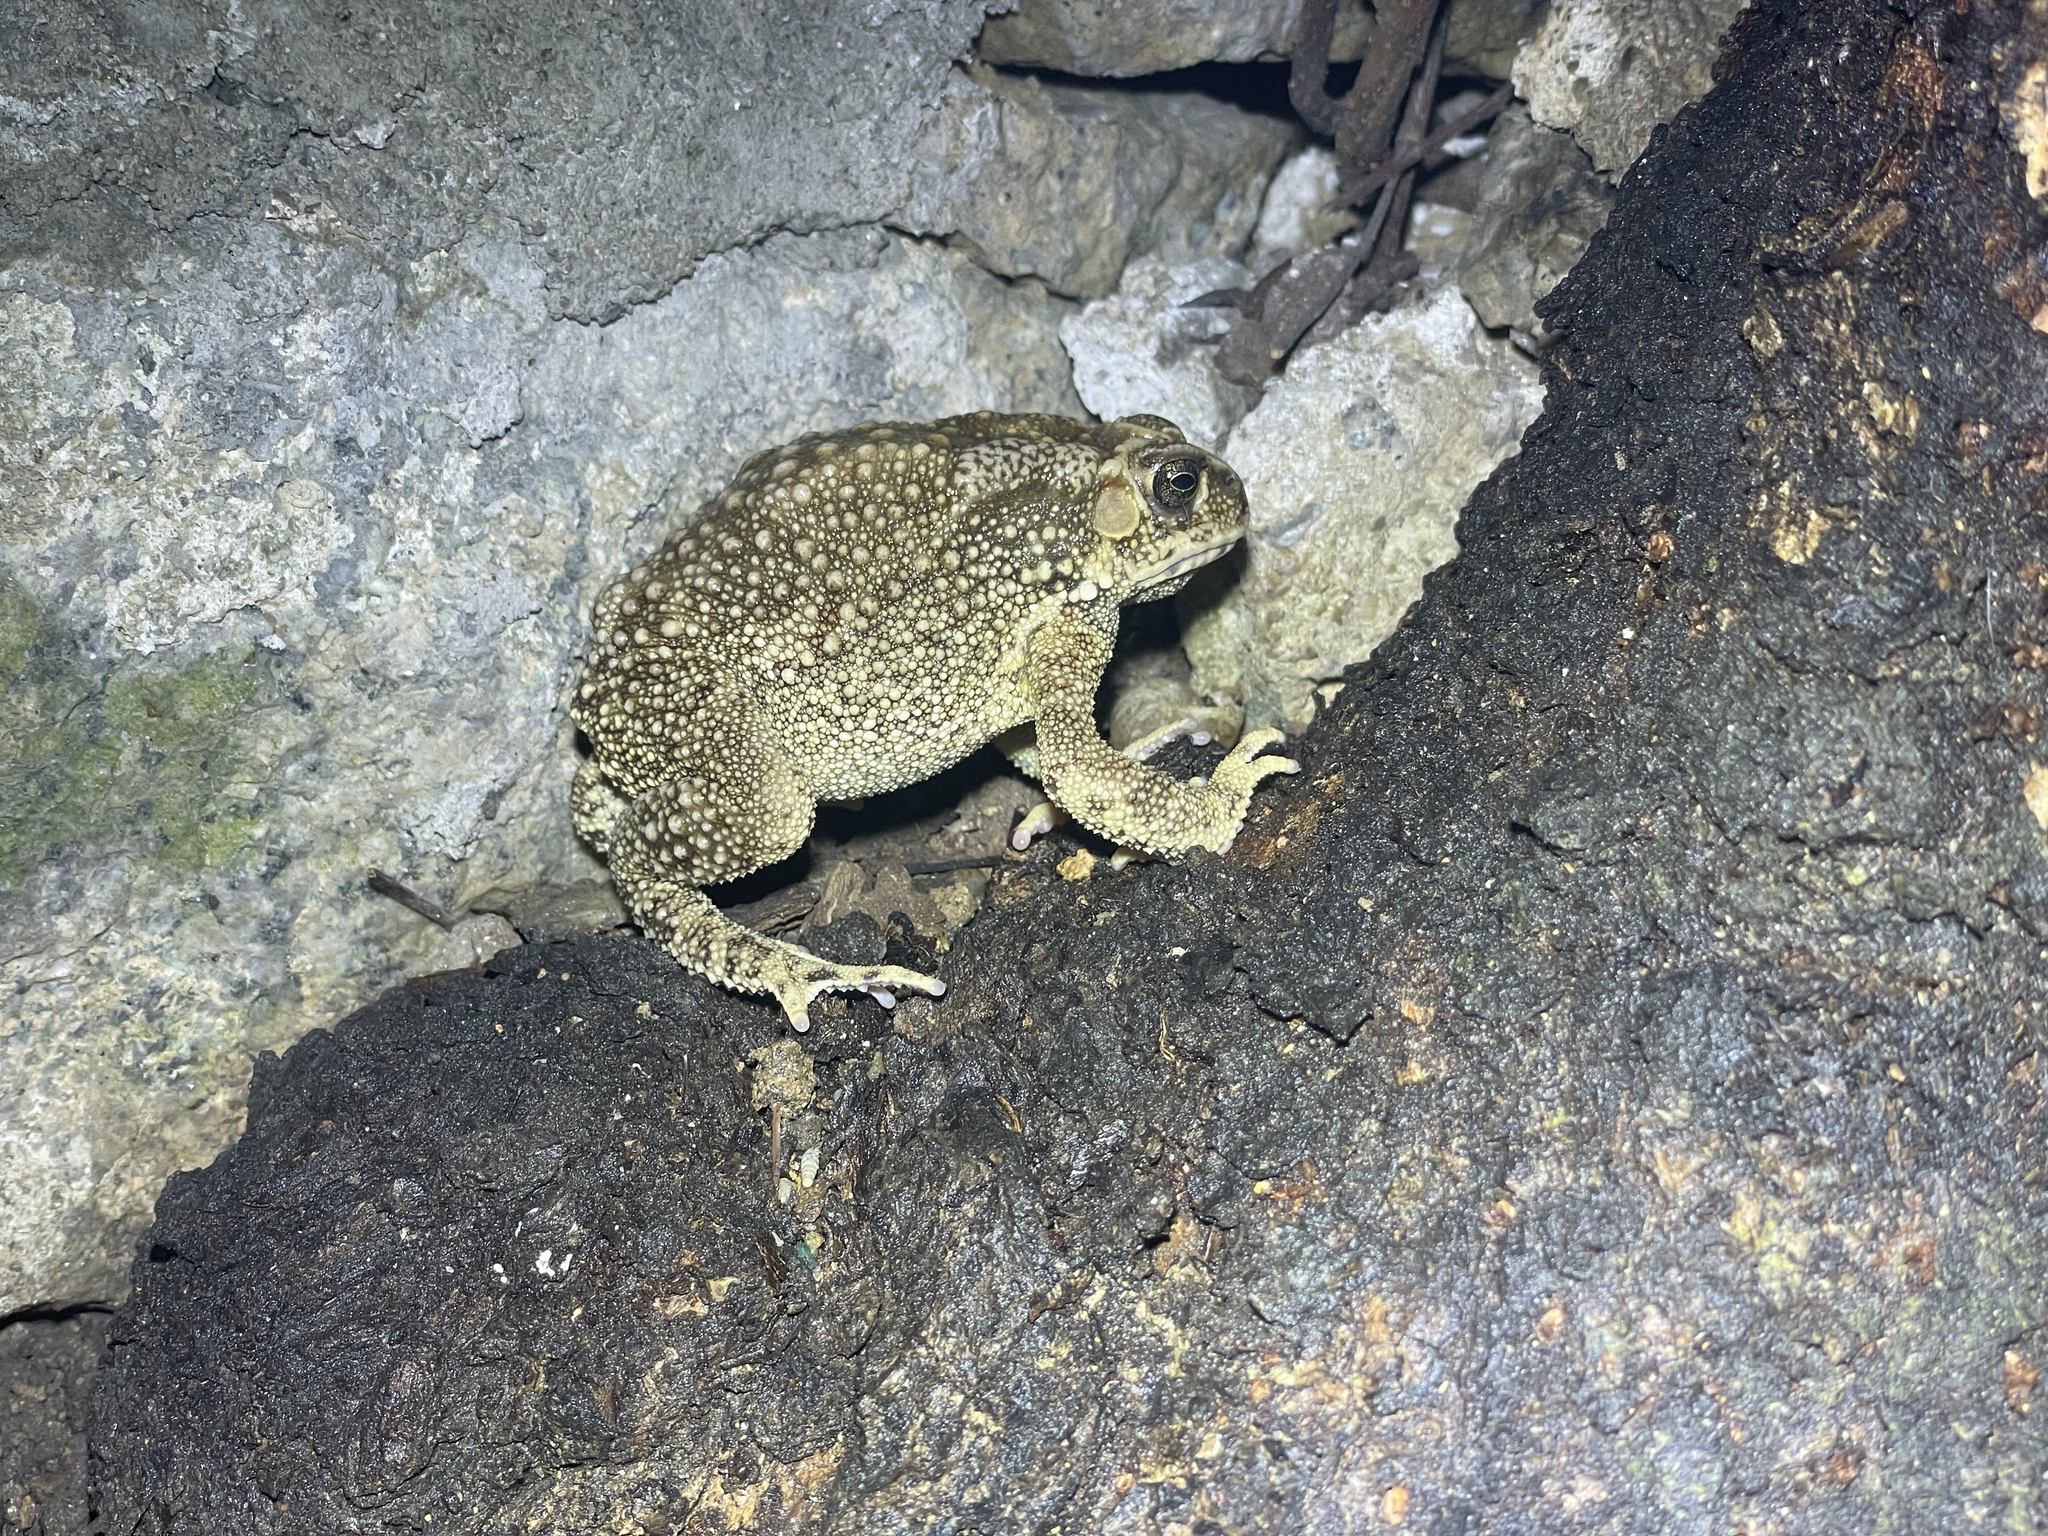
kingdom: Animalia
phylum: Chordata
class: Amphibia
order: Anura
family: Bufonidae
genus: Duttaphrynus
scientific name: Duttaphrynus melanostictus
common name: Common sunda toad
